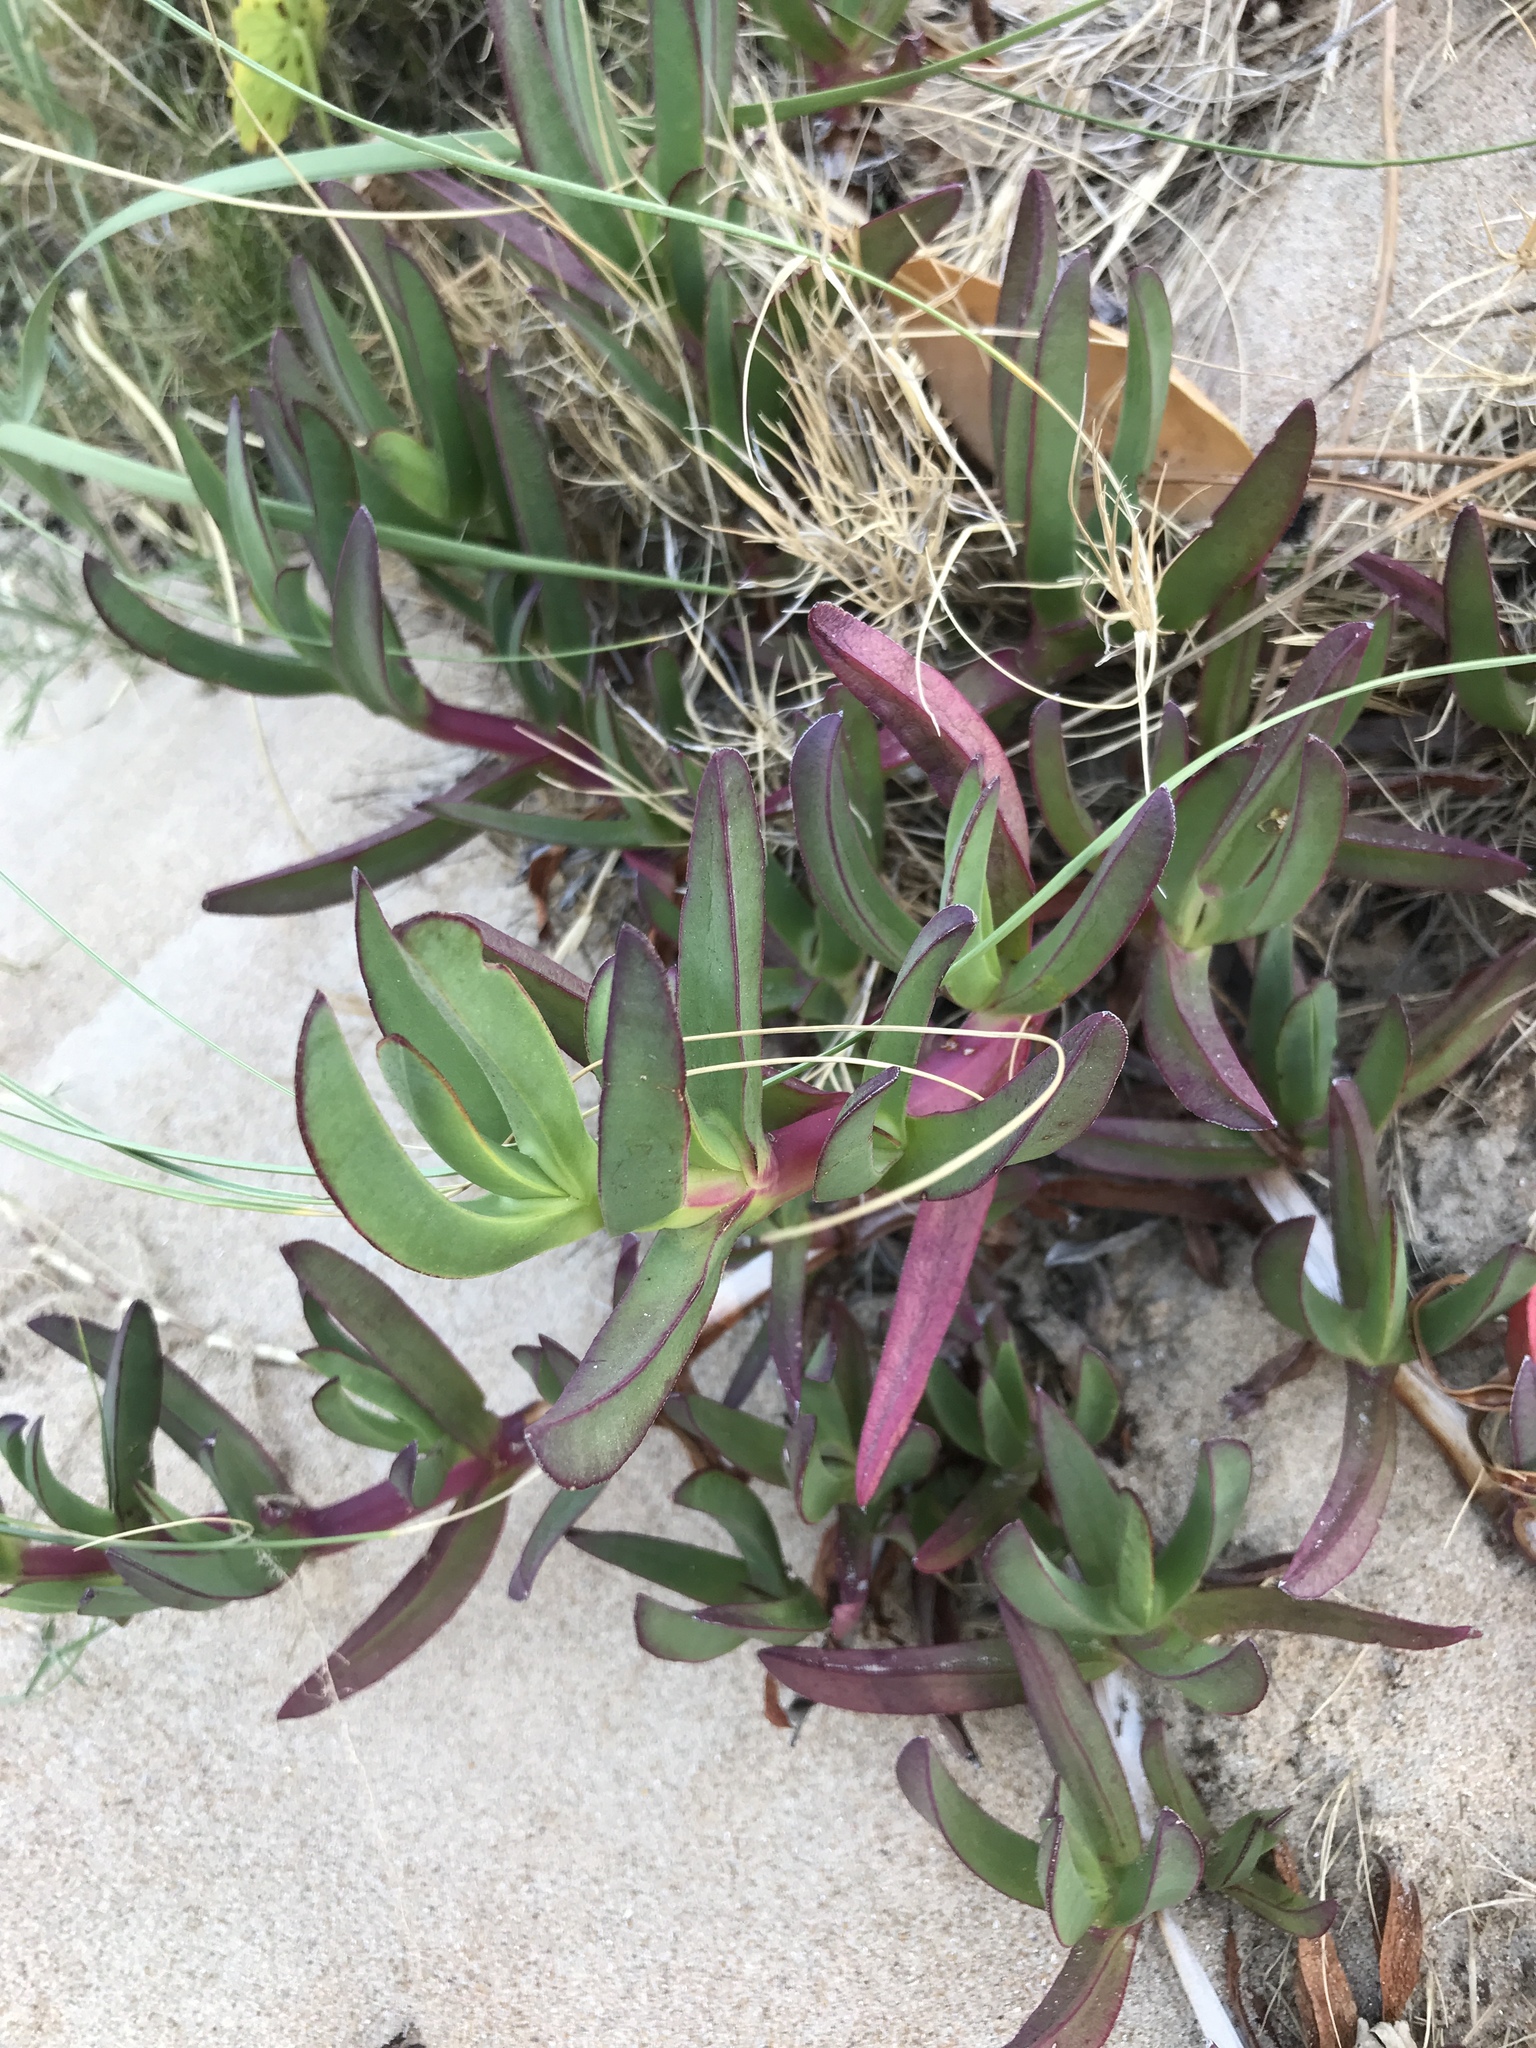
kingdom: Plantae
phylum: Tracheophyta
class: Magnoliopsida
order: Caryophyllales
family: Aizoaceae
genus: Carpobrotus
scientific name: Carpobrotus edulis
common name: Hottentot-fig
